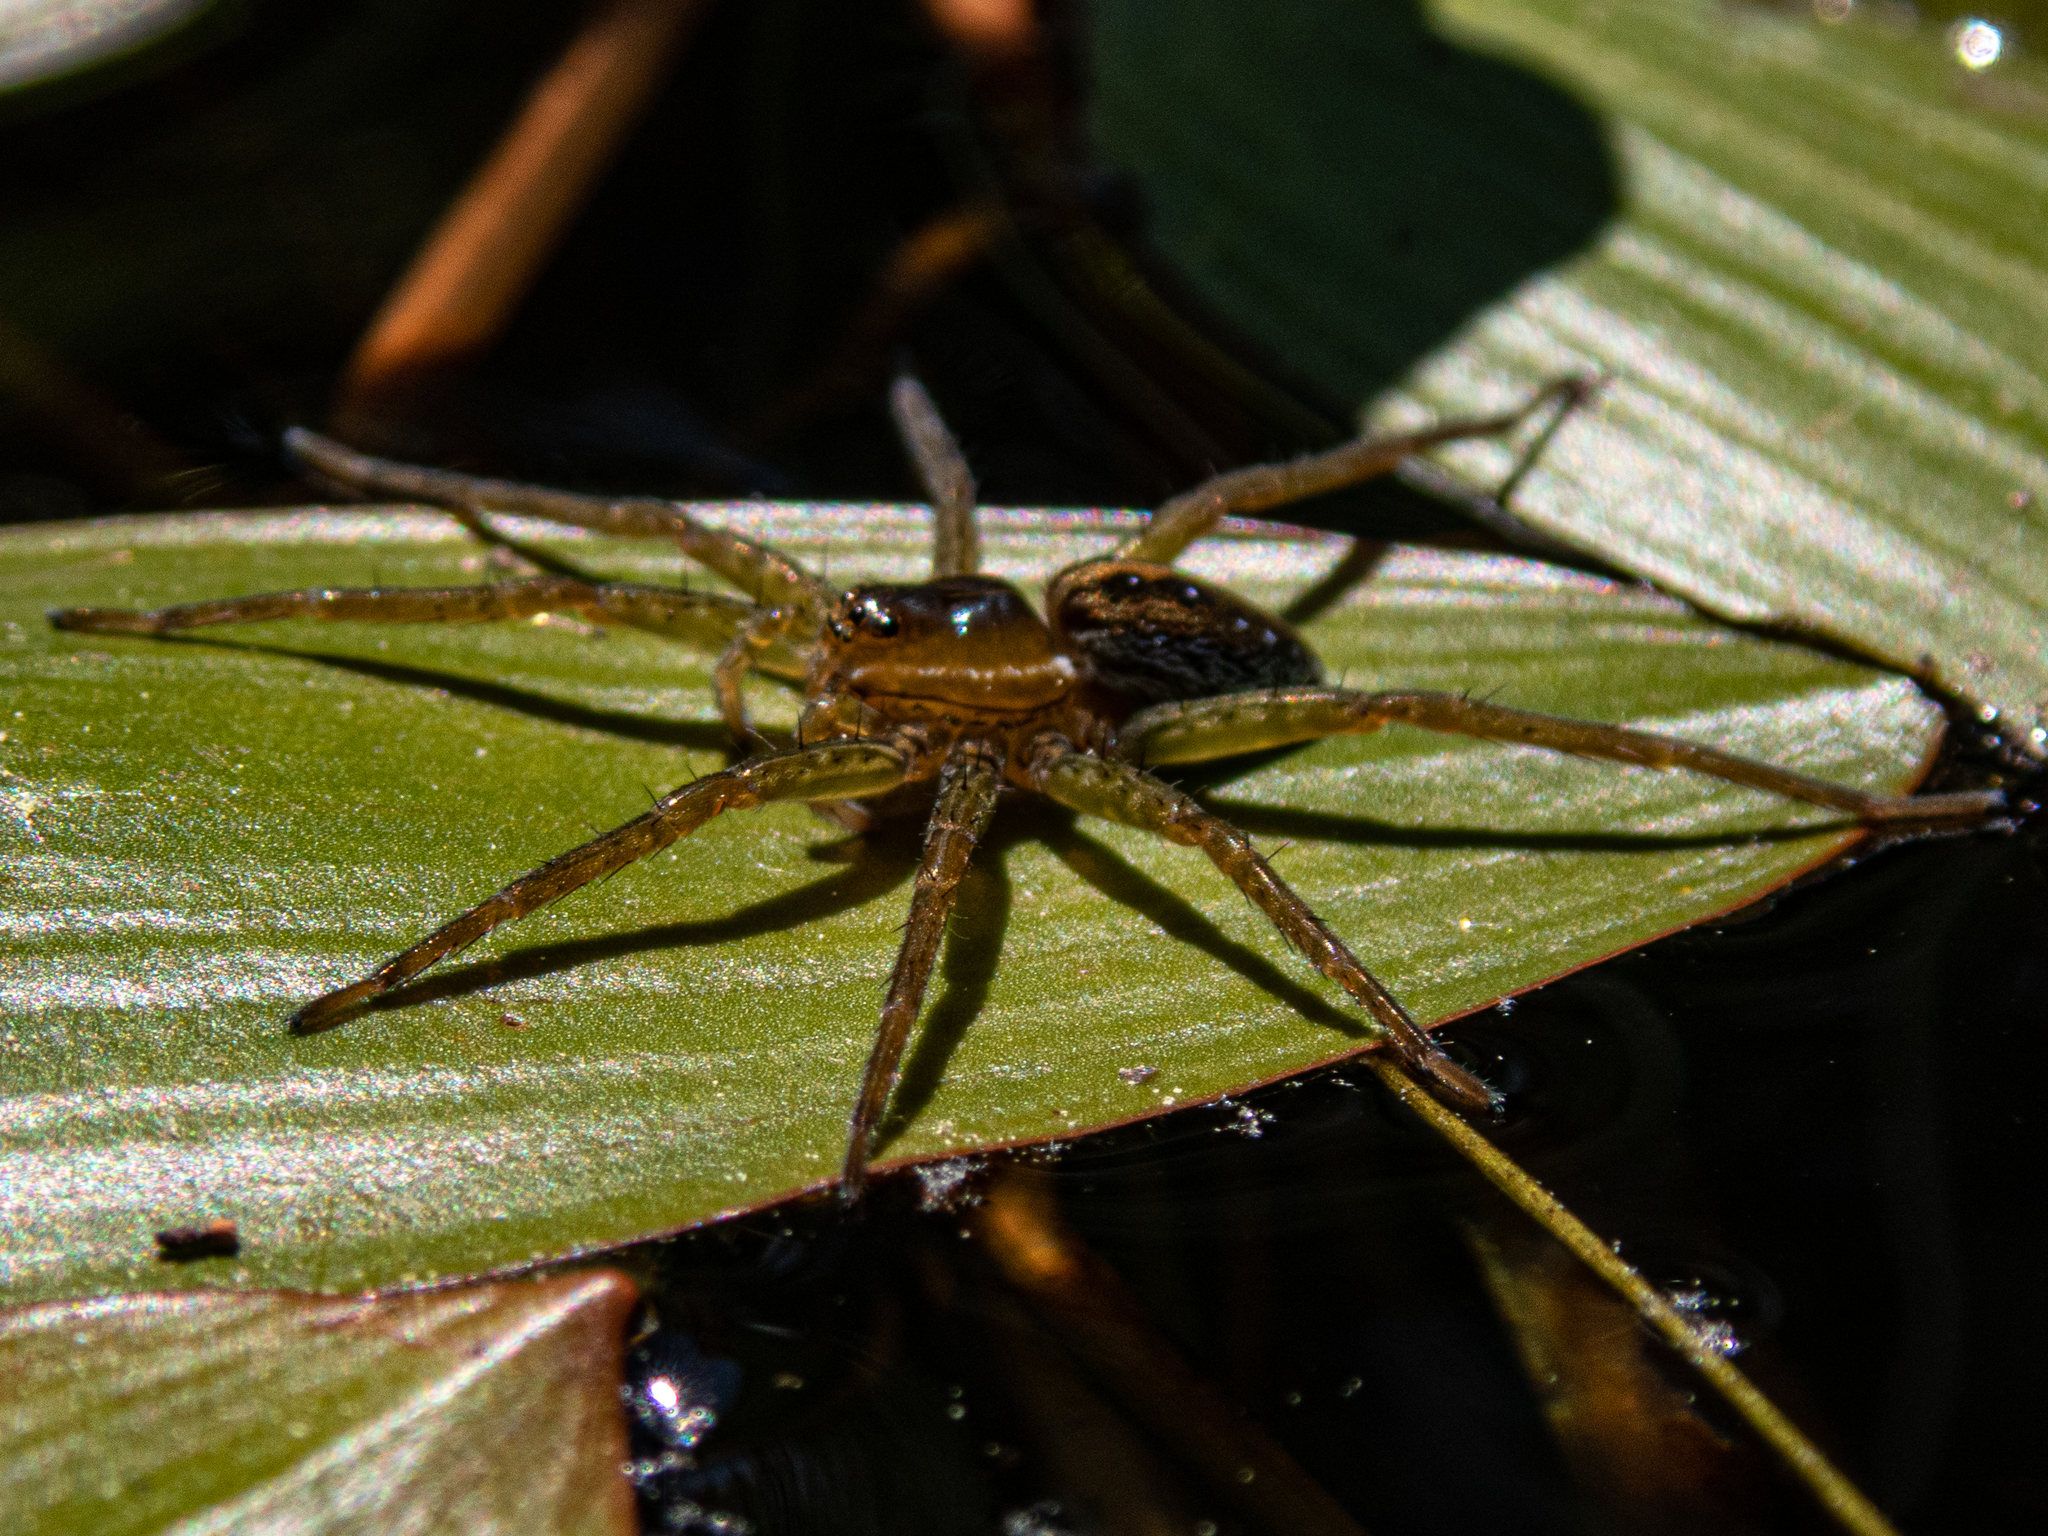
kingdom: Animalia
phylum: Arthropoda
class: Arachnida
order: Araneae
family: Pisauridae
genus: Dolomedes
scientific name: Dolomedes triton
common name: Six-spotted fishing spider
